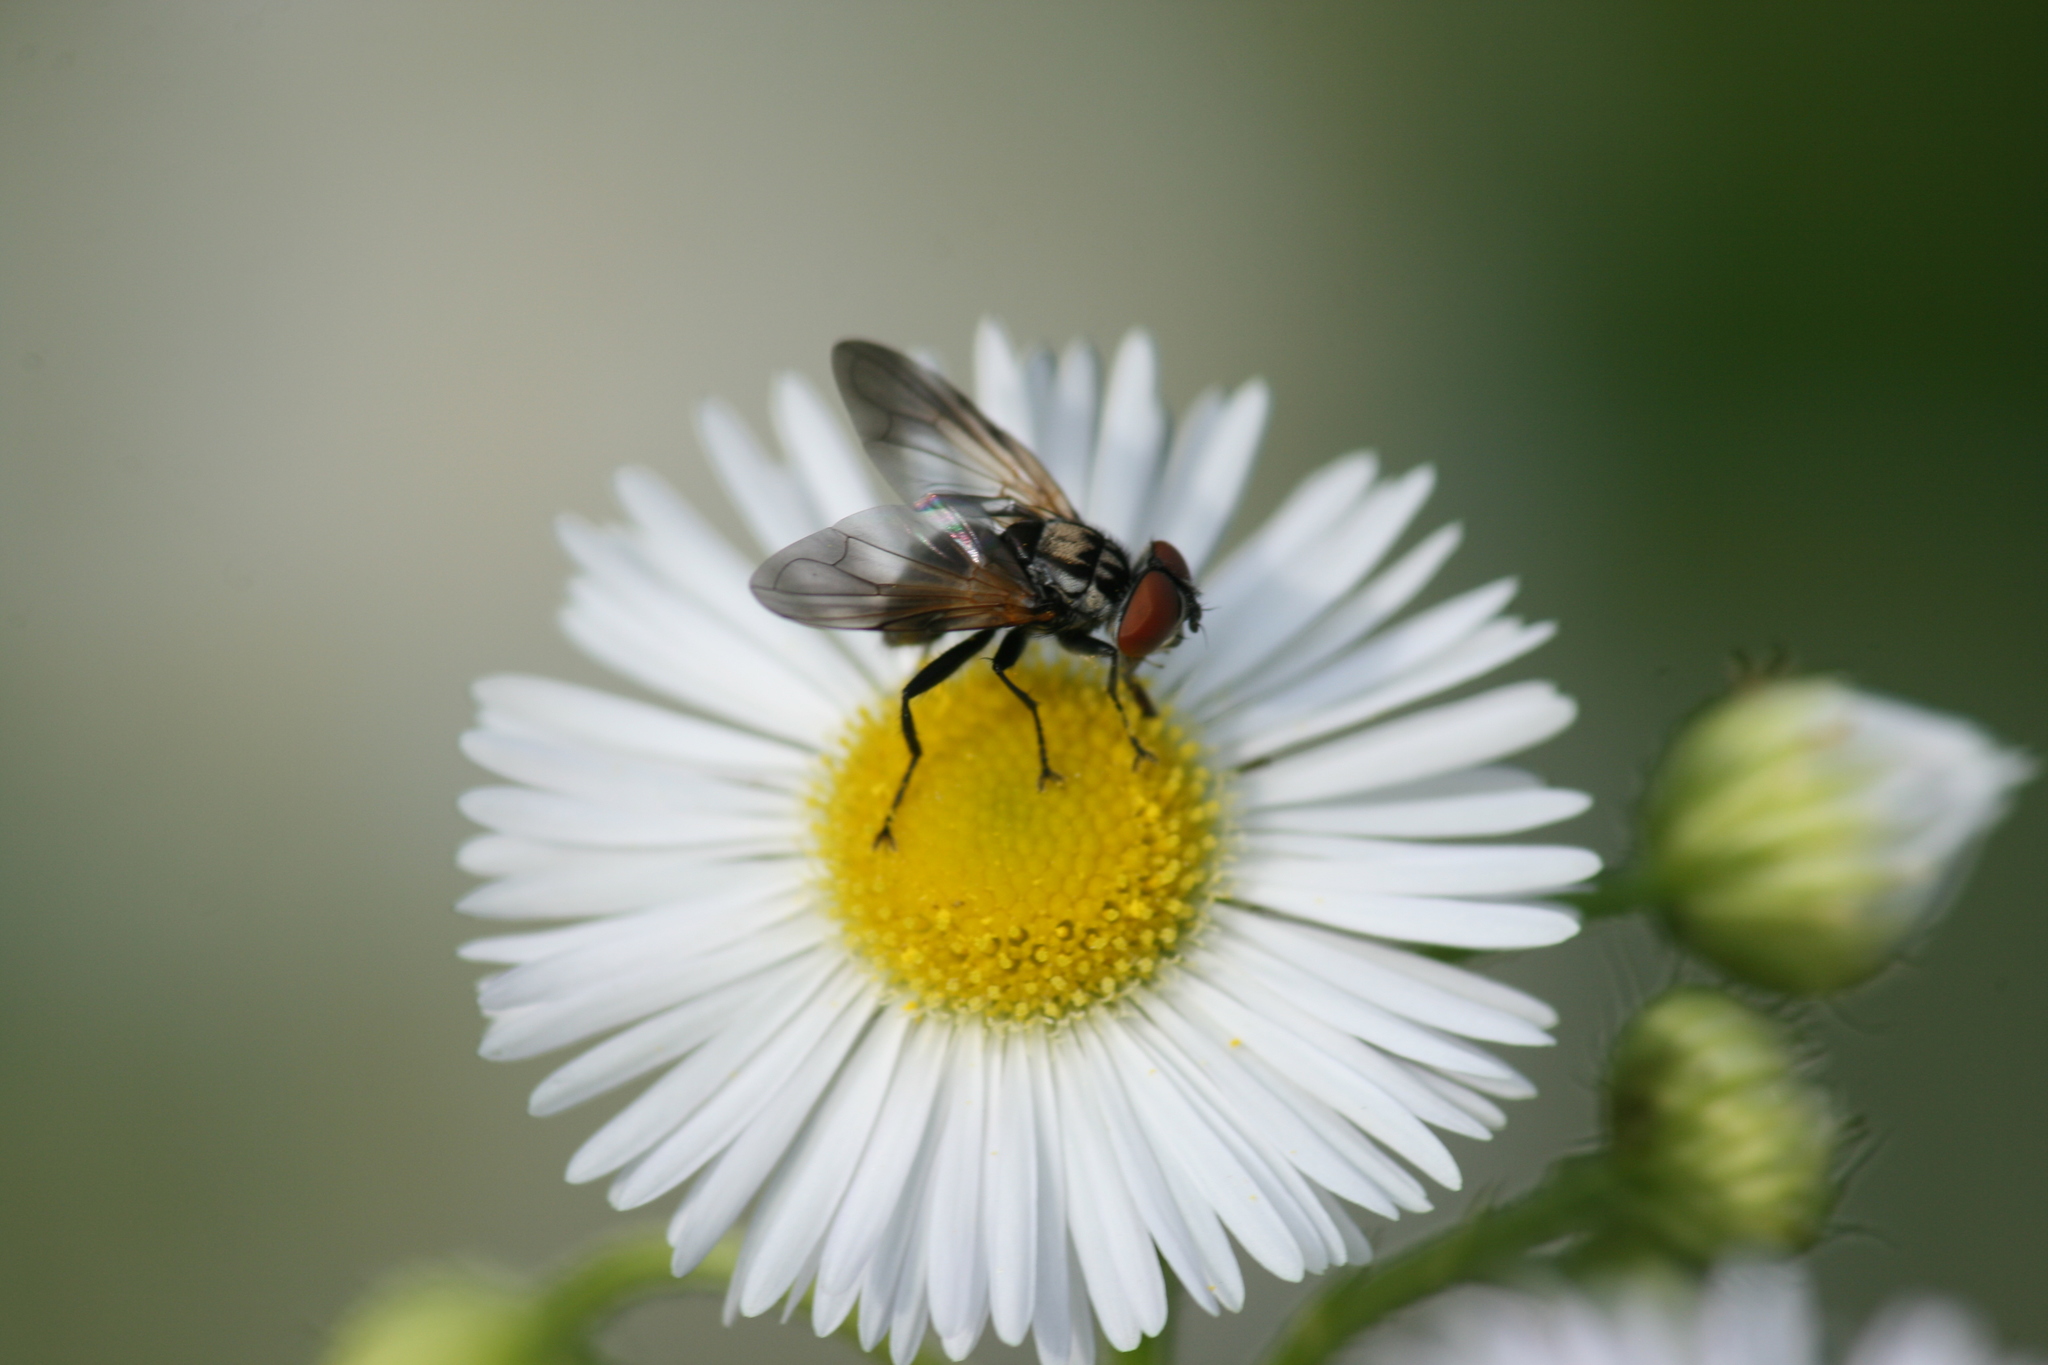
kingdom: Animalia
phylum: Arthropoda
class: Insecta
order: Diptera
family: Tachinidae
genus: Phasia
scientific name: Phasia obesa
